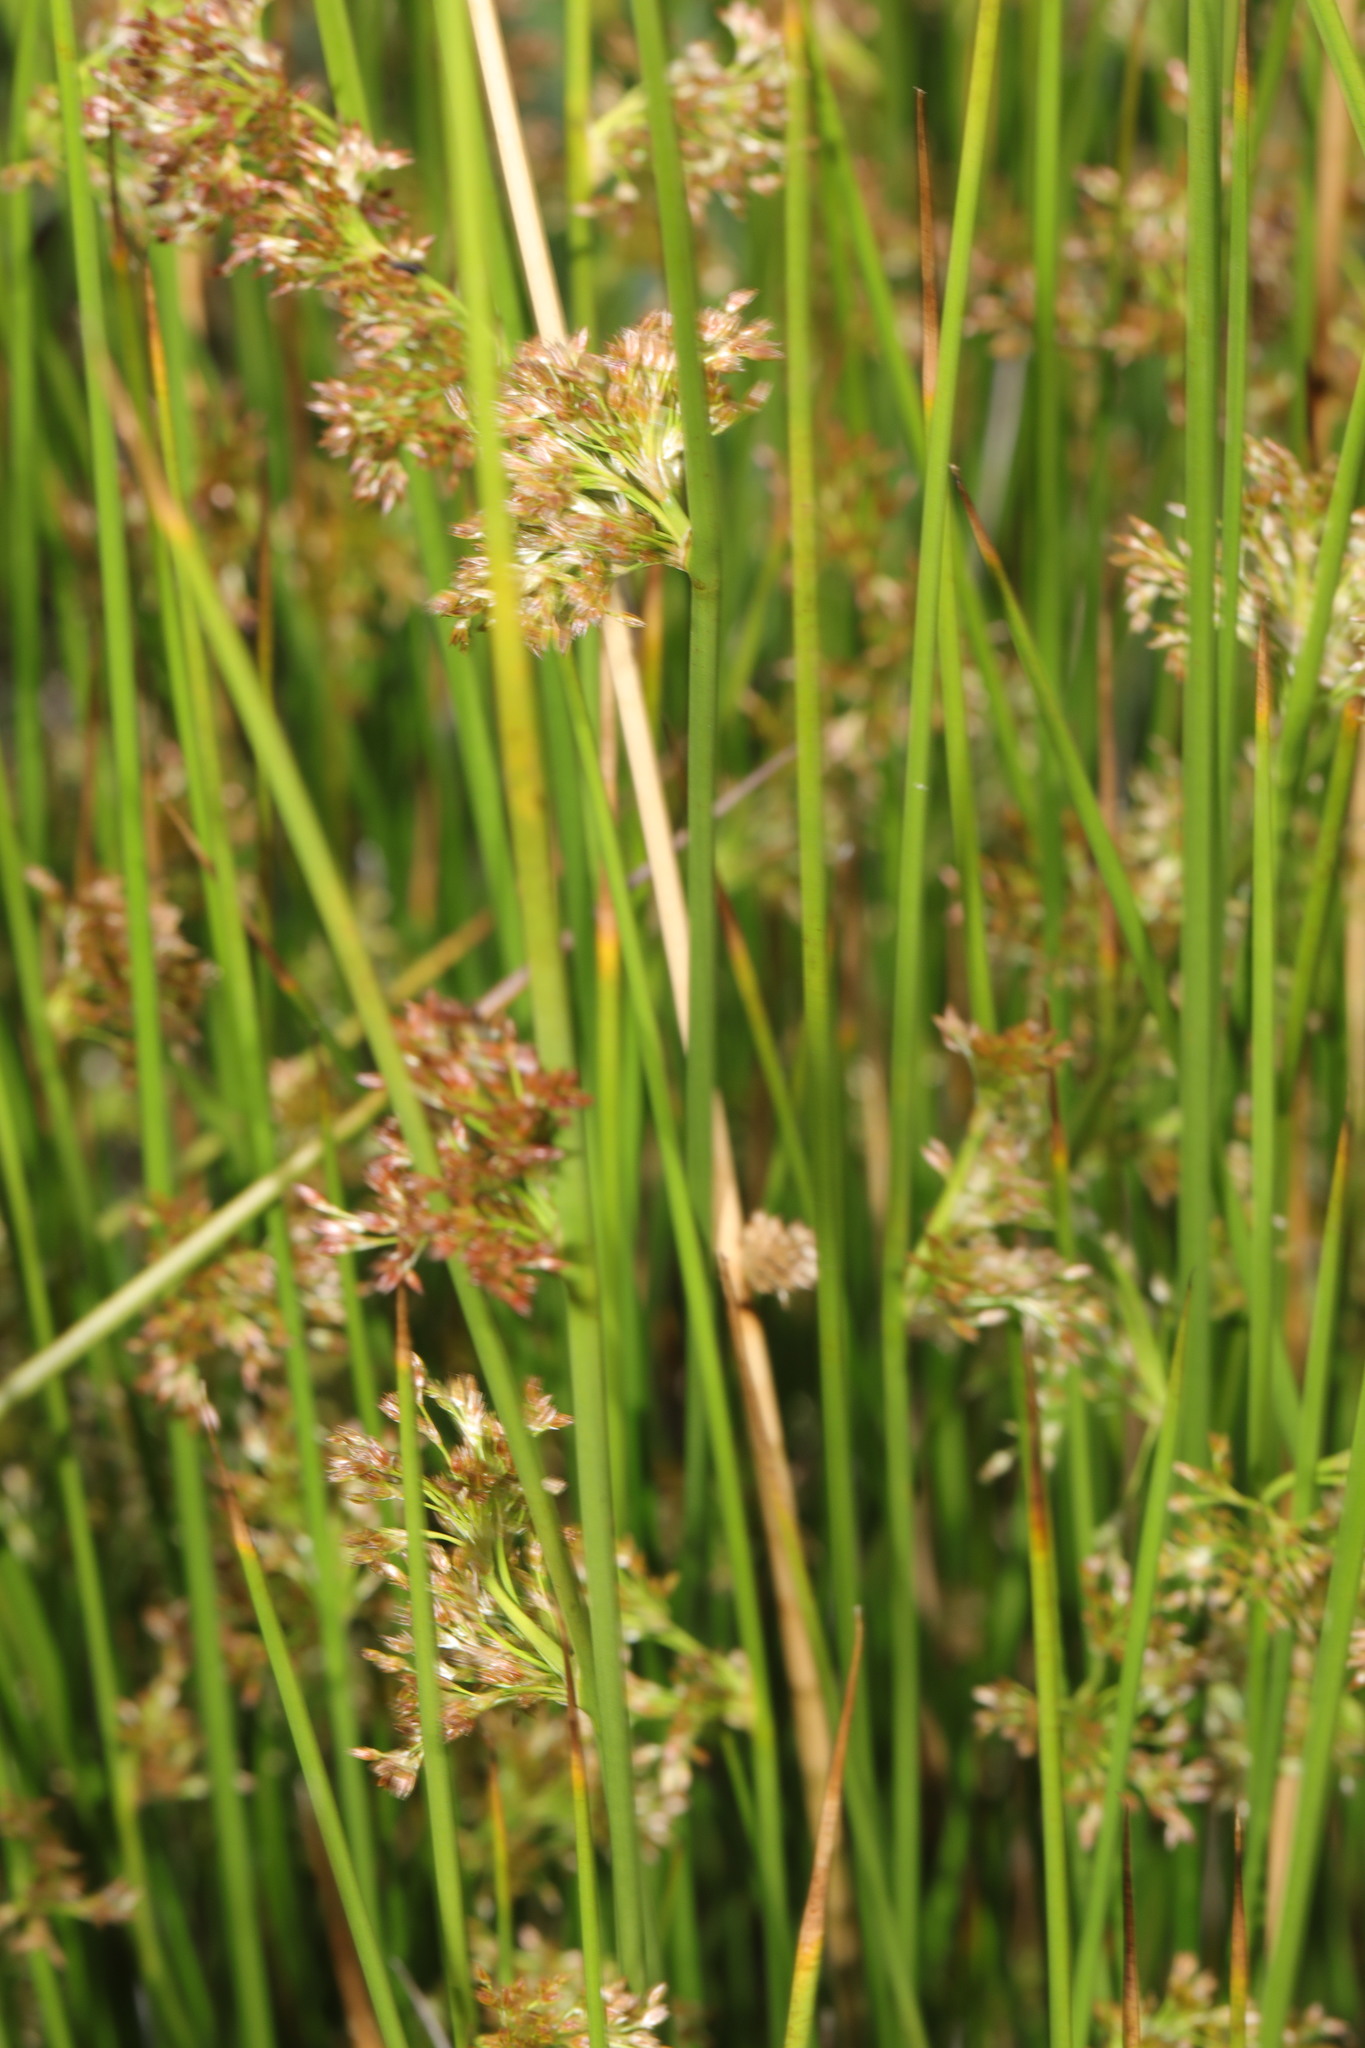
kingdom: Plantae
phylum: Tracheophyta
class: Liliopsida
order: Poales
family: Juncaceae
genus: Juncus
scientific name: Juncus effusus
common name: Soft rush
